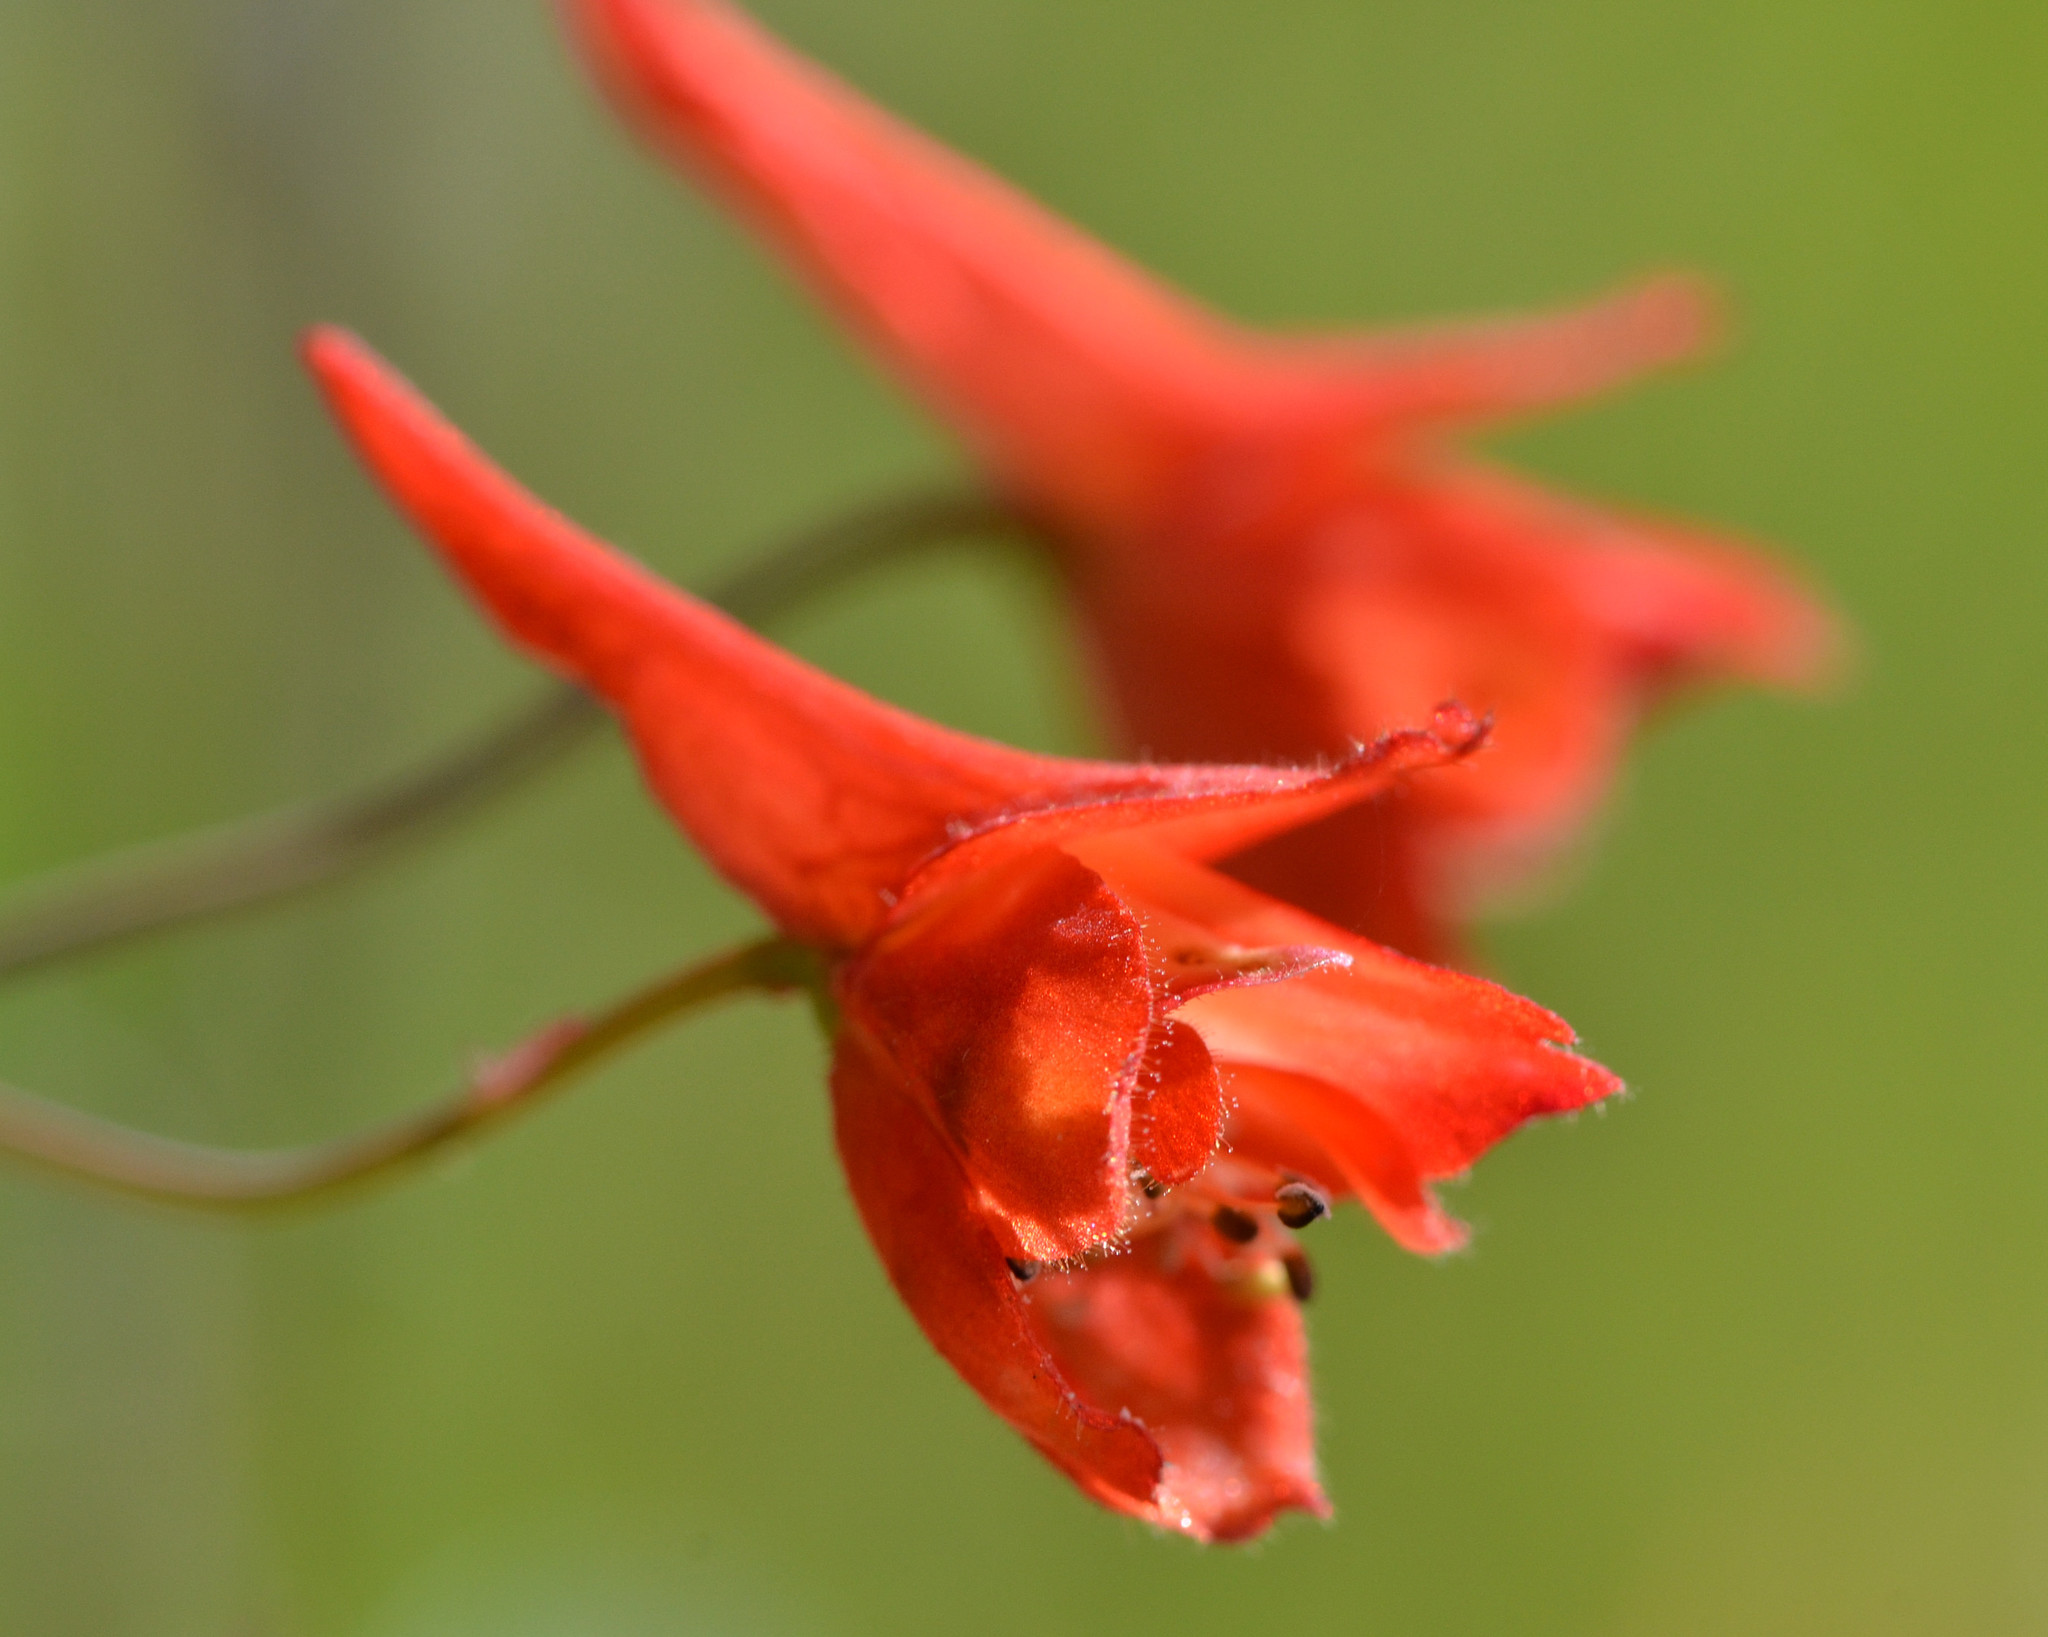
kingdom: Plantae
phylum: Tracheophyta
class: Magnoliopsida
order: Ranunculales
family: Ranunculaceae
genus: Delphinium
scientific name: Delphinium nudicaule
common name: Red larkspur
